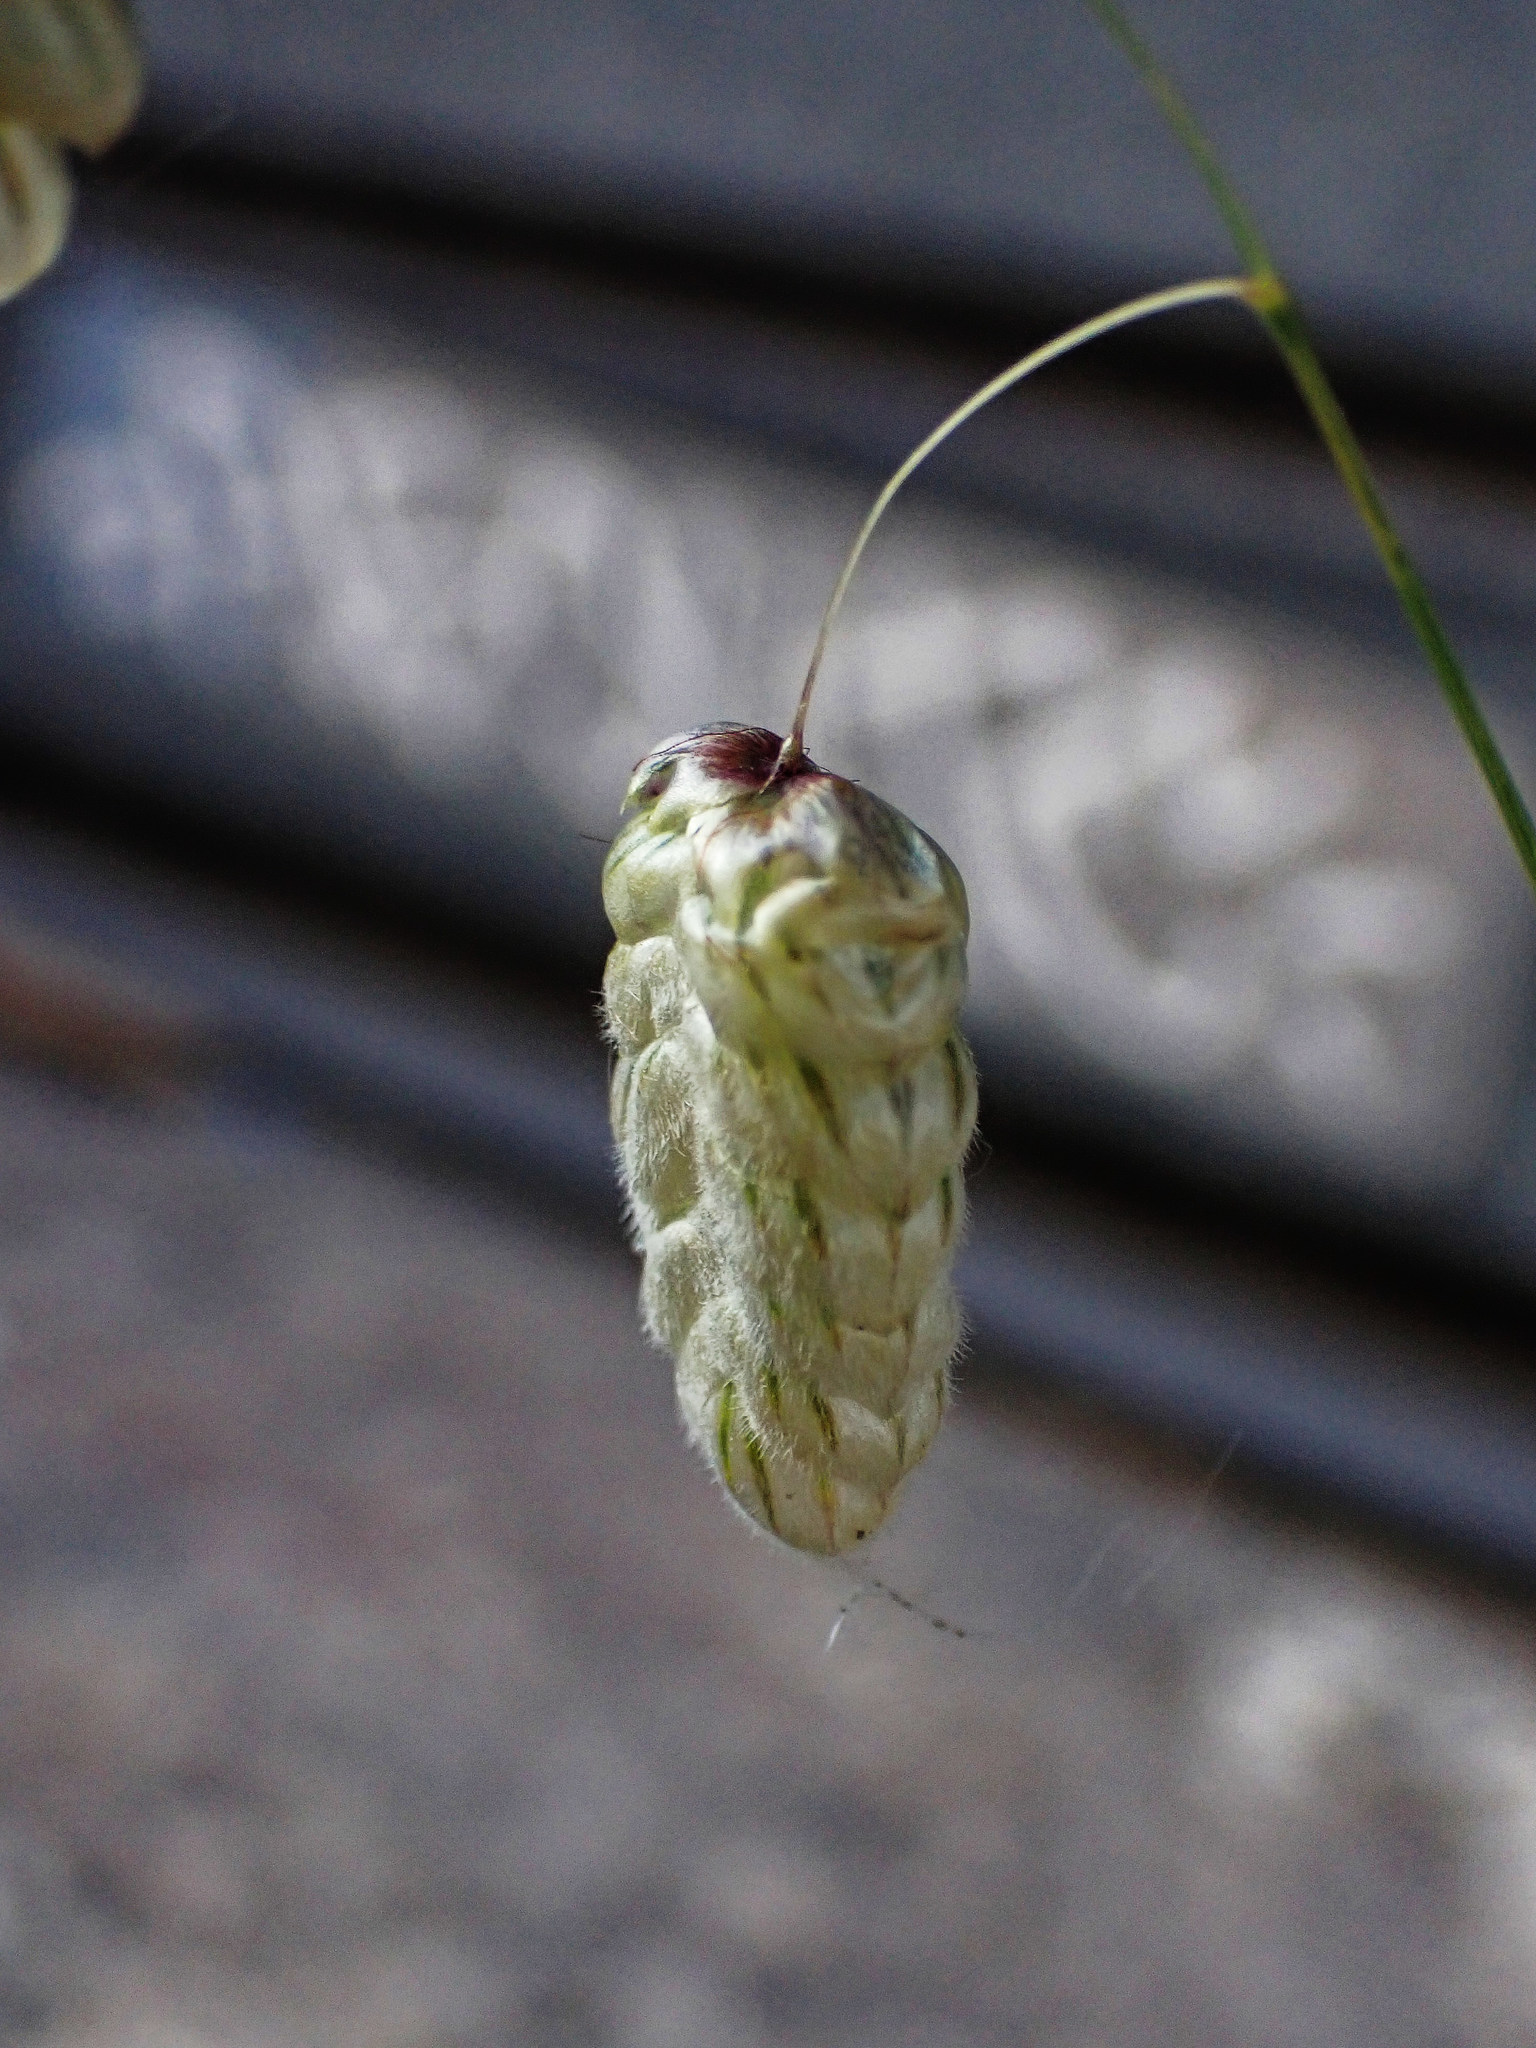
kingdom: Plantae
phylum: Tracheophyta
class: Liliopsida
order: Poales
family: Poaceae
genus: Briza
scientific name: Briza maxima
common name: Big quakinggrass
